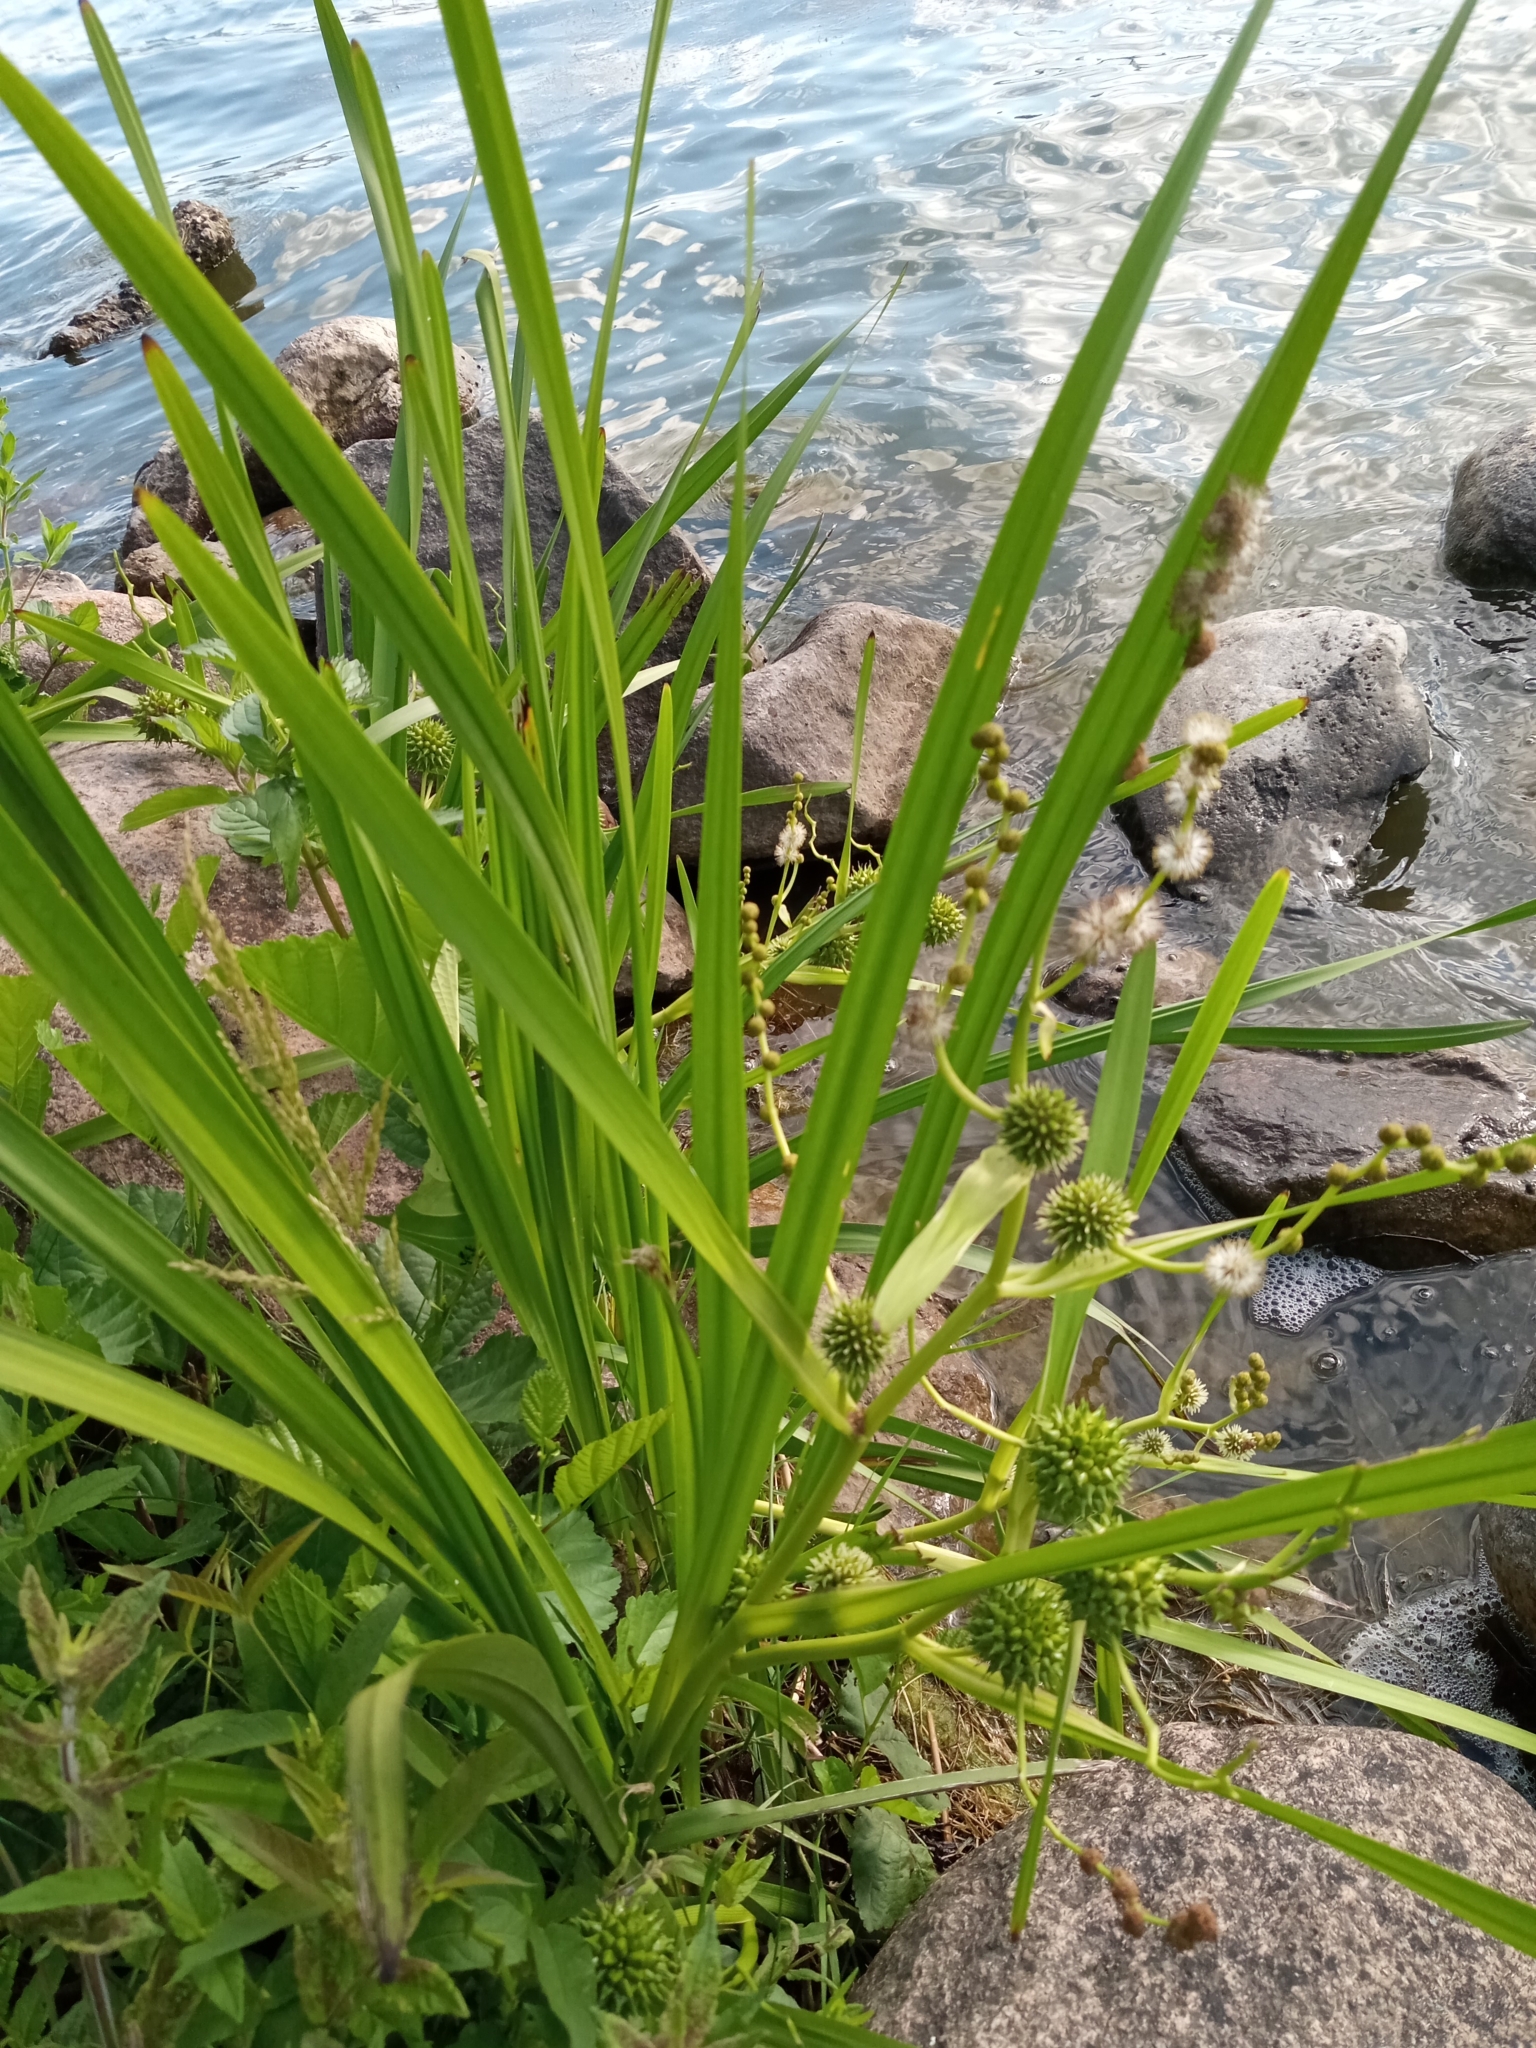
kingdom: Plantae
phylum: Tracheophyta
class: Liliopsida
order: Poales
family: Typhaceae
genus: Sparganium
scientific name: Sparganium erectum
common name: Branched bur-reed
